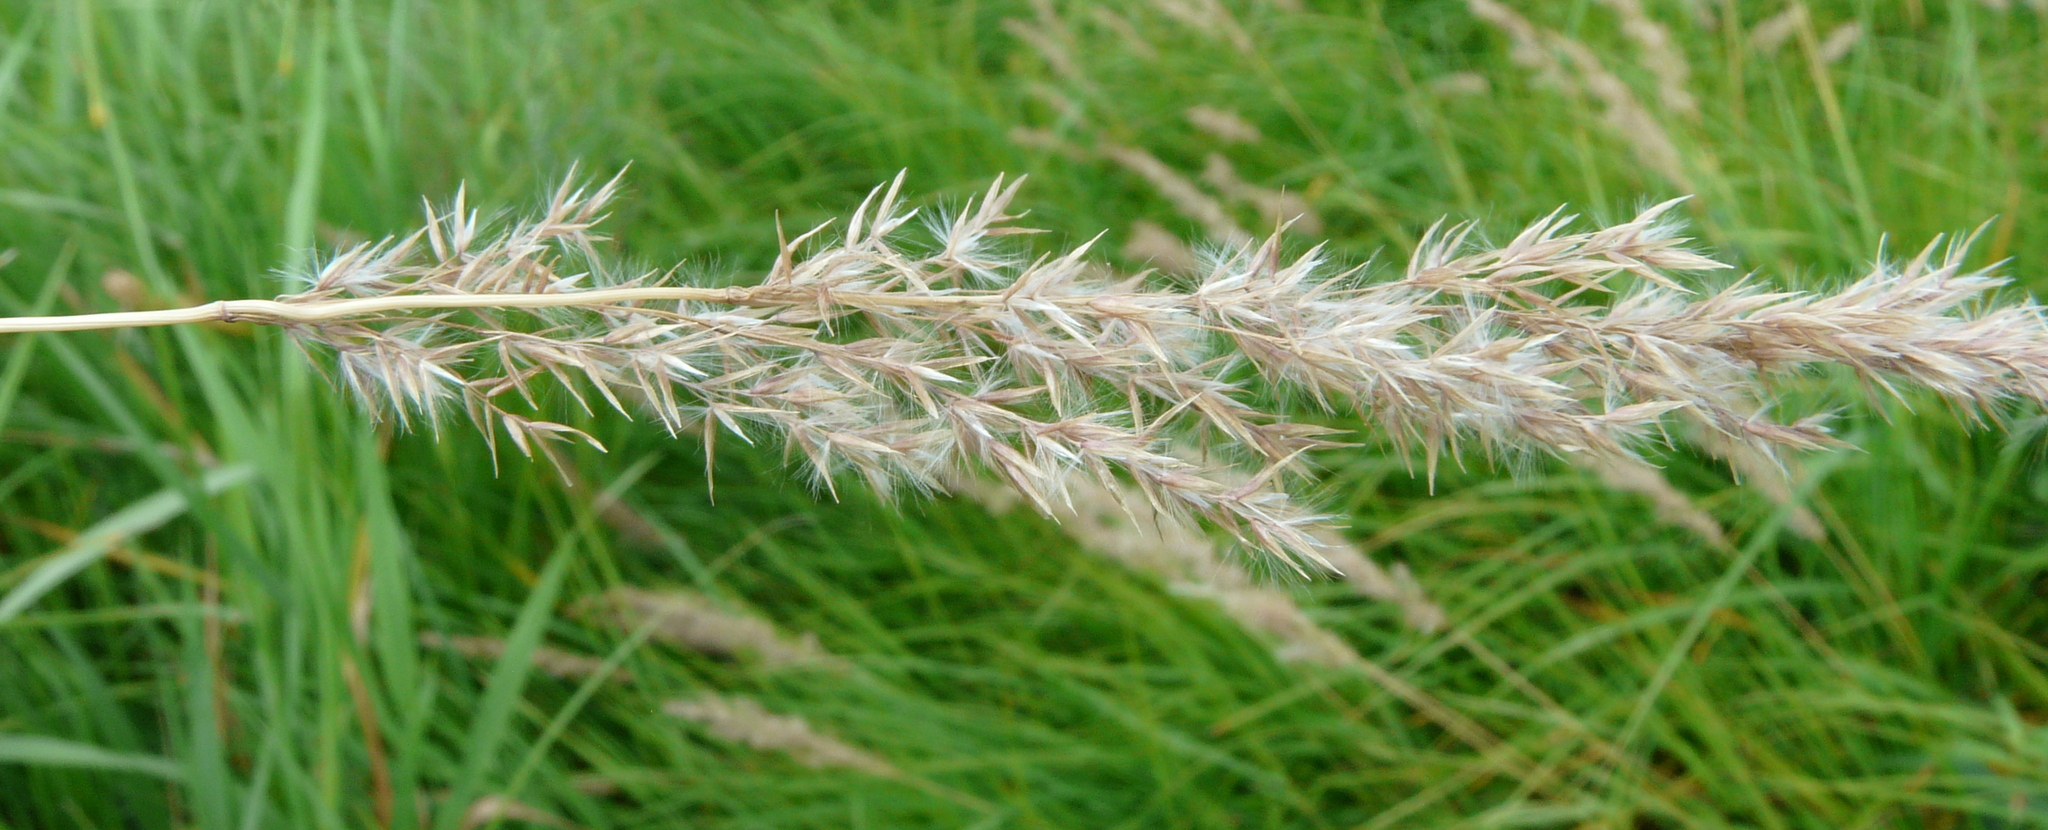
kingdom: Plantae
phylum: Tracheophyta
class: Liliopsida
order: Poales
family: Poaceae
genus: Calamagrostis
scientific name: Calamagrostis canescens
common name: Purple small-reed
